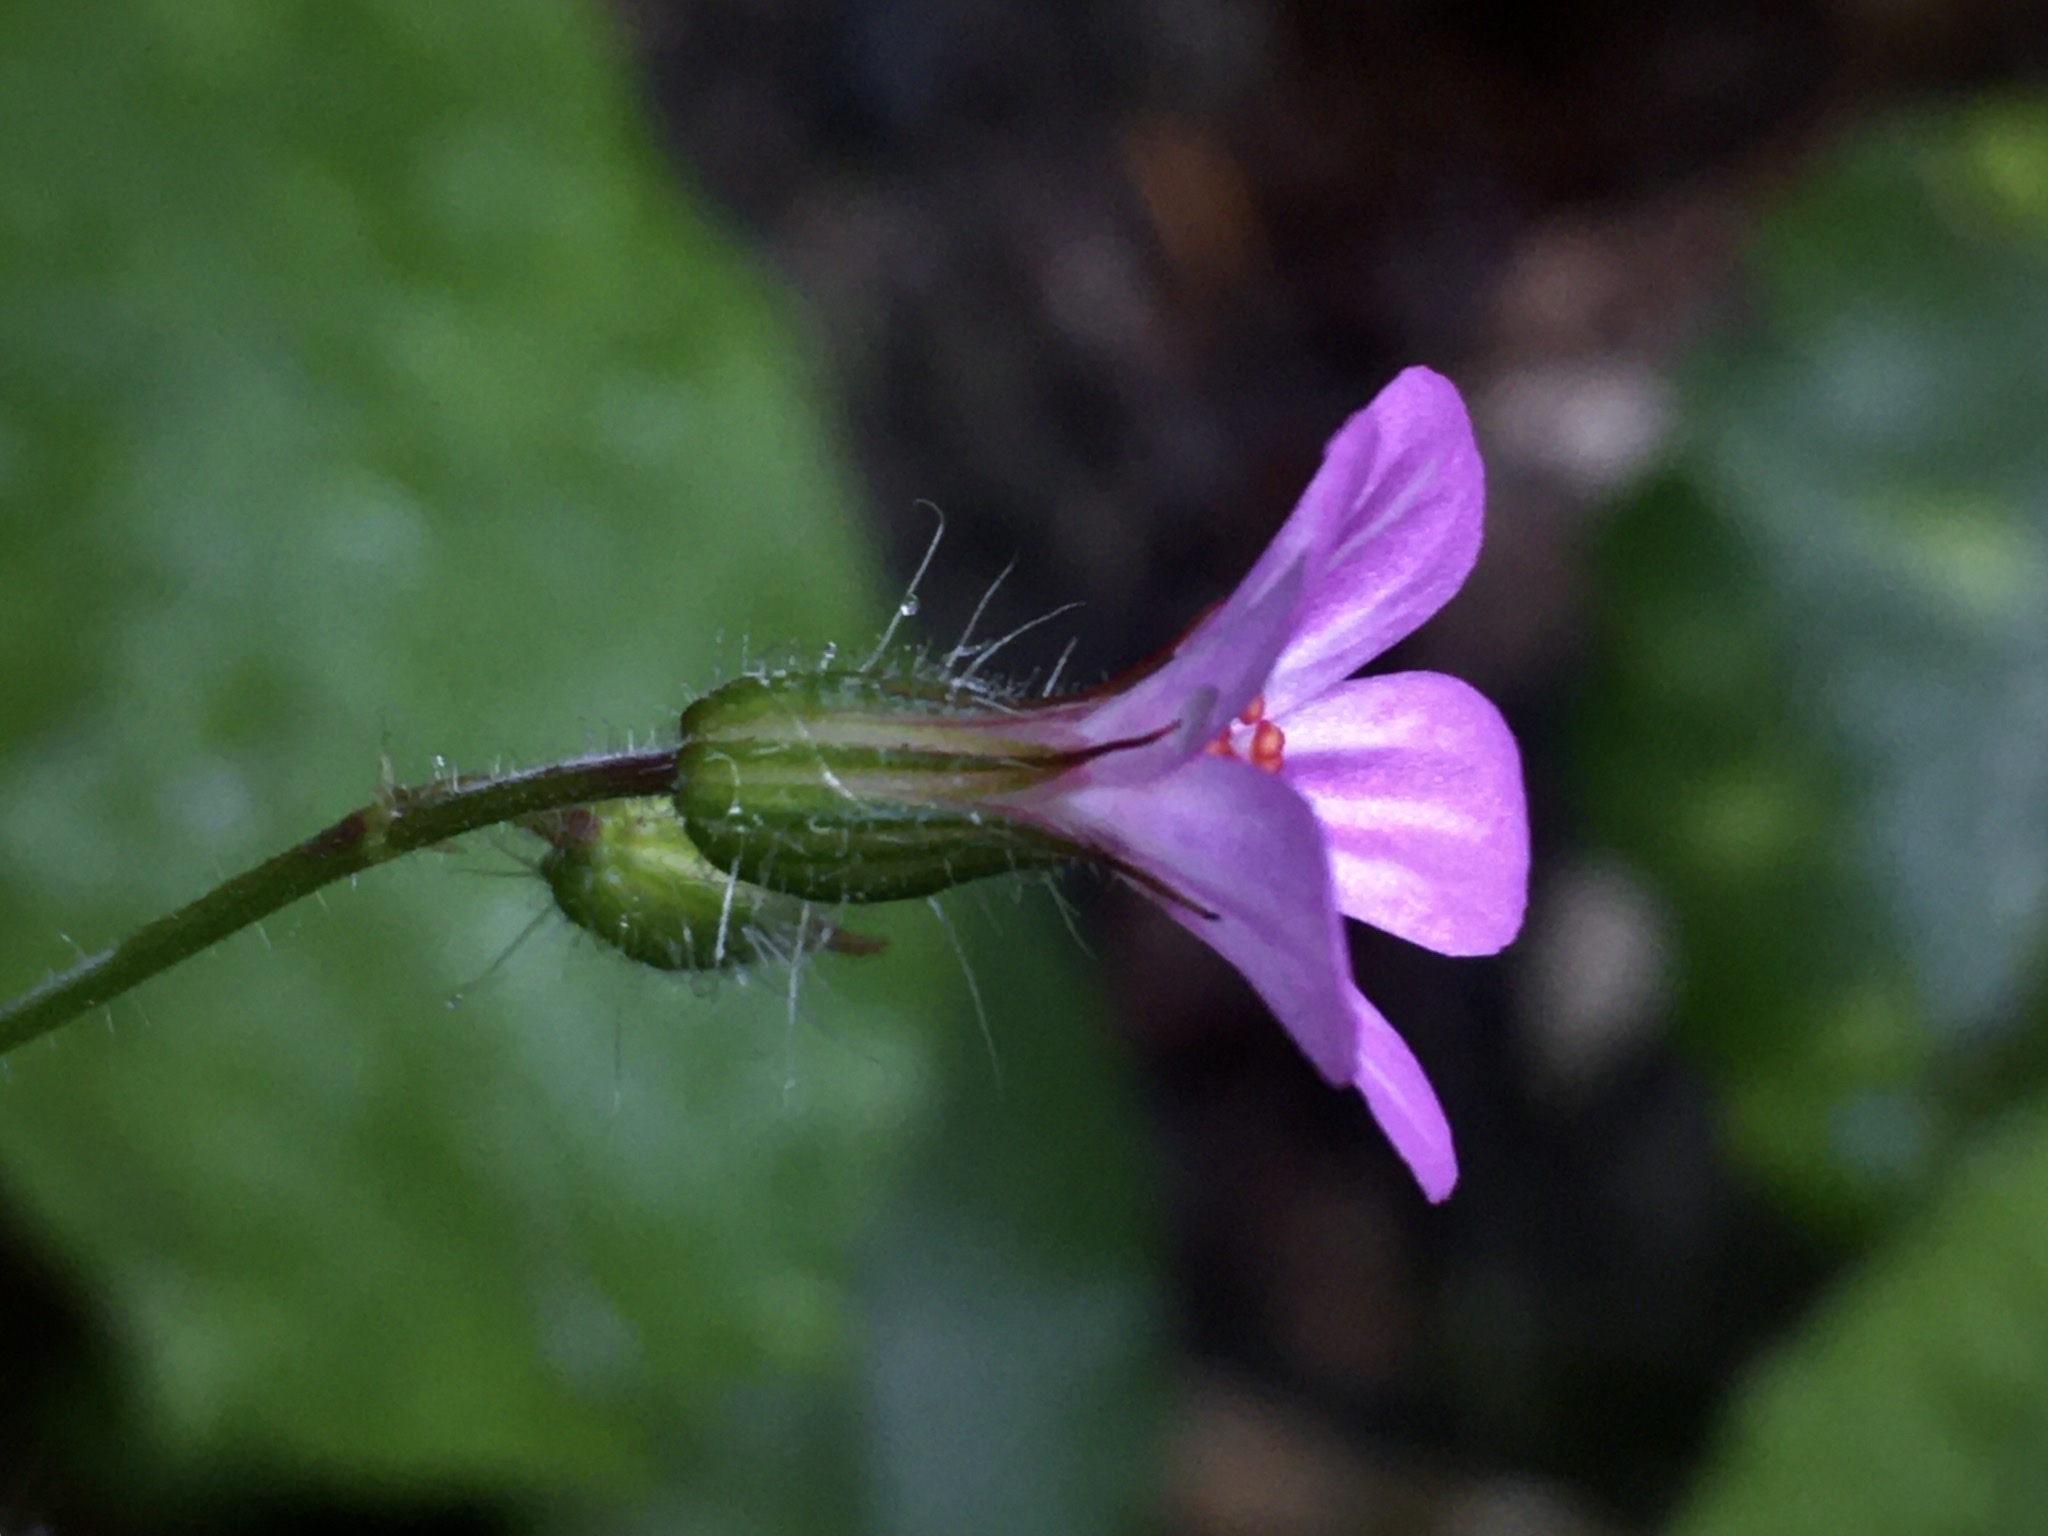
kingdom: Plantae
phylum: Tracheophyta
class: Magnoliopsida
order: Geraniales
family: Geraniaceae
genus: Geranium
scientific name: Geranium robertianum
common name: Herb-robert
